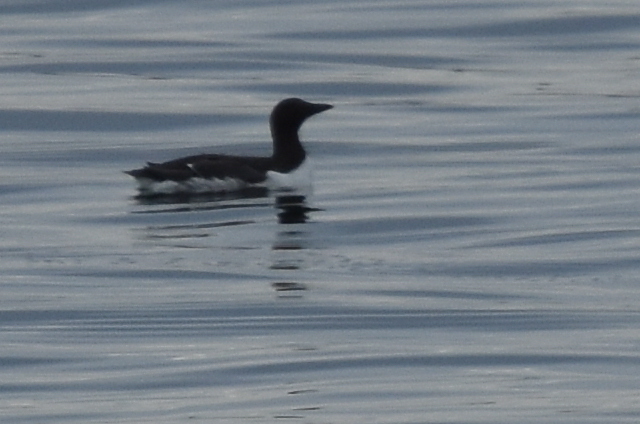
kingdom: Animalia
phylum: Chordata
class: Aves
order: Charadriiformes
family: Alcidae
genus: Uria
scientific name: Uria aalge
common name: Common murre
